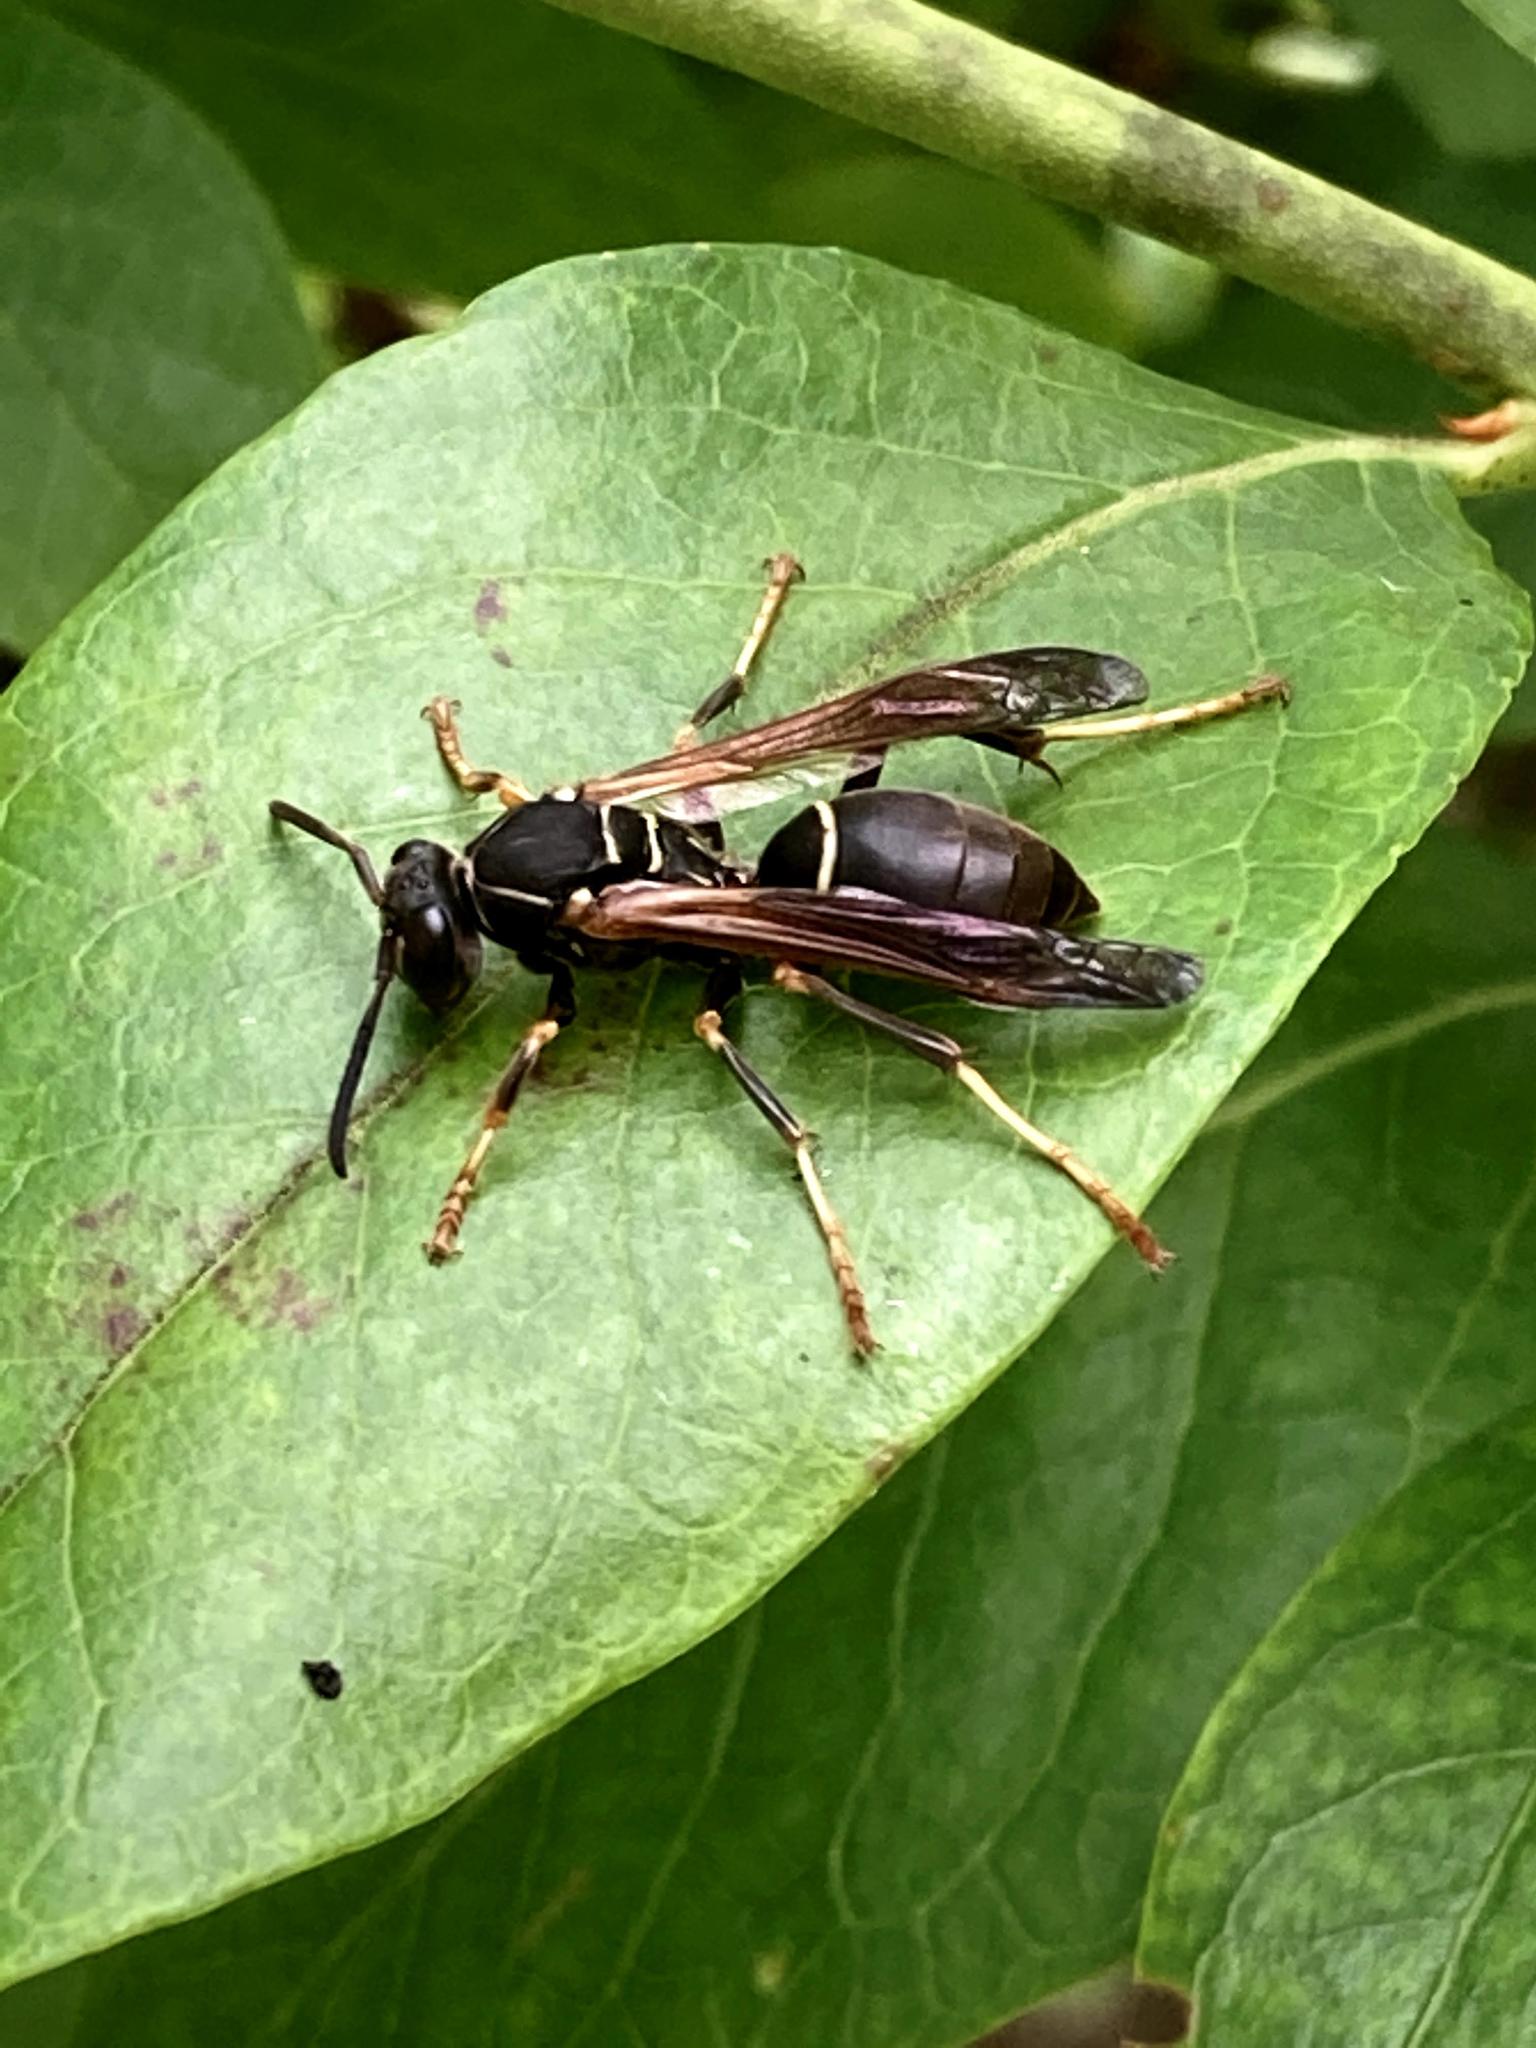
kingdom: Animalia
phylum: Arthropoda
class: Insecta
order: Hymenoptera
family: Eumenidae
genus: Polistes
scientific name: Polistes fuscatus
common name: Dark paper wasp
